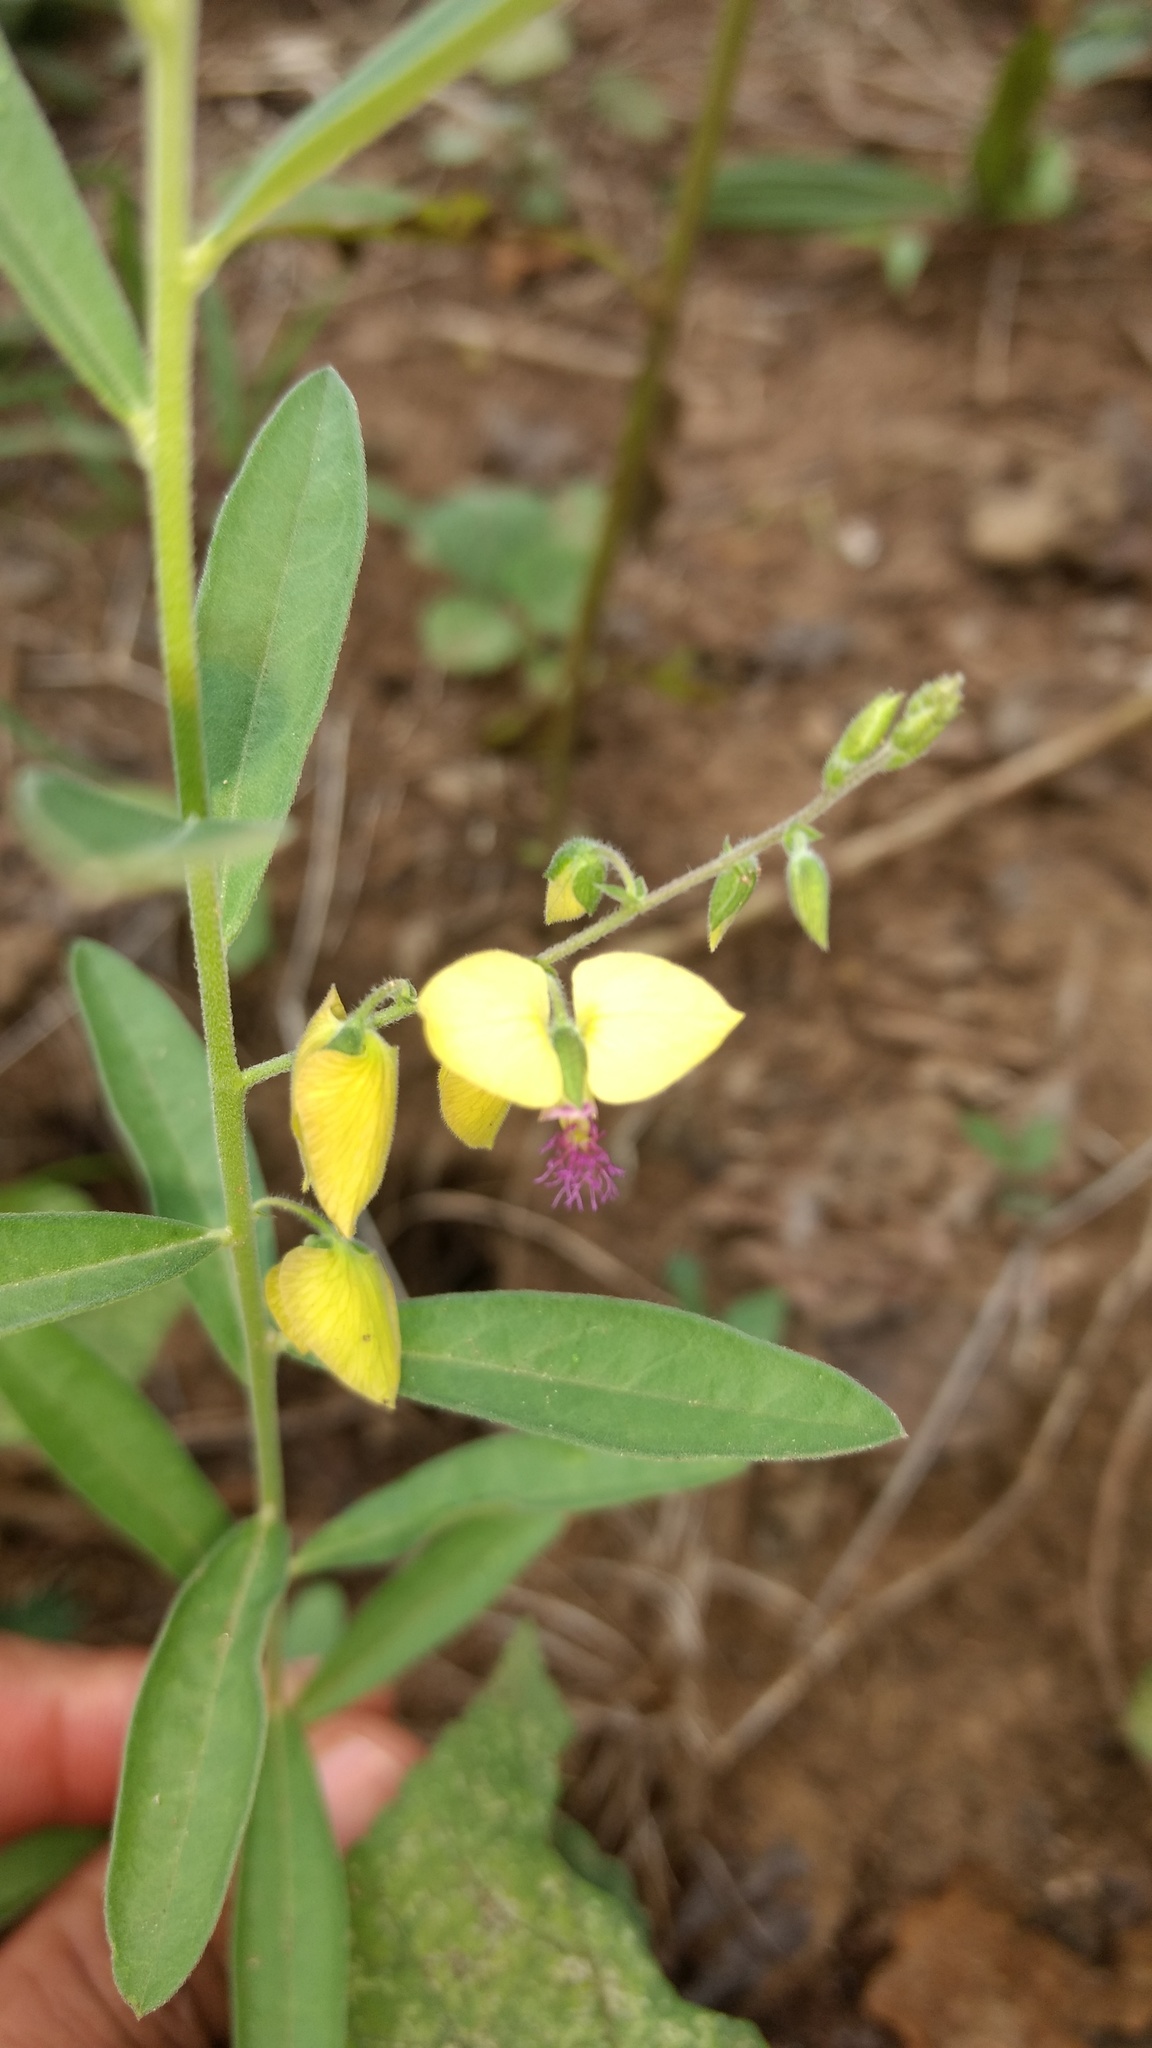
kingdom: Plantae
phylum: Tracheophyta
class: Magnoliopsida
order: Fabales
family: Polygalaceae
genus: Polygala
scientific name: Polygala javana
